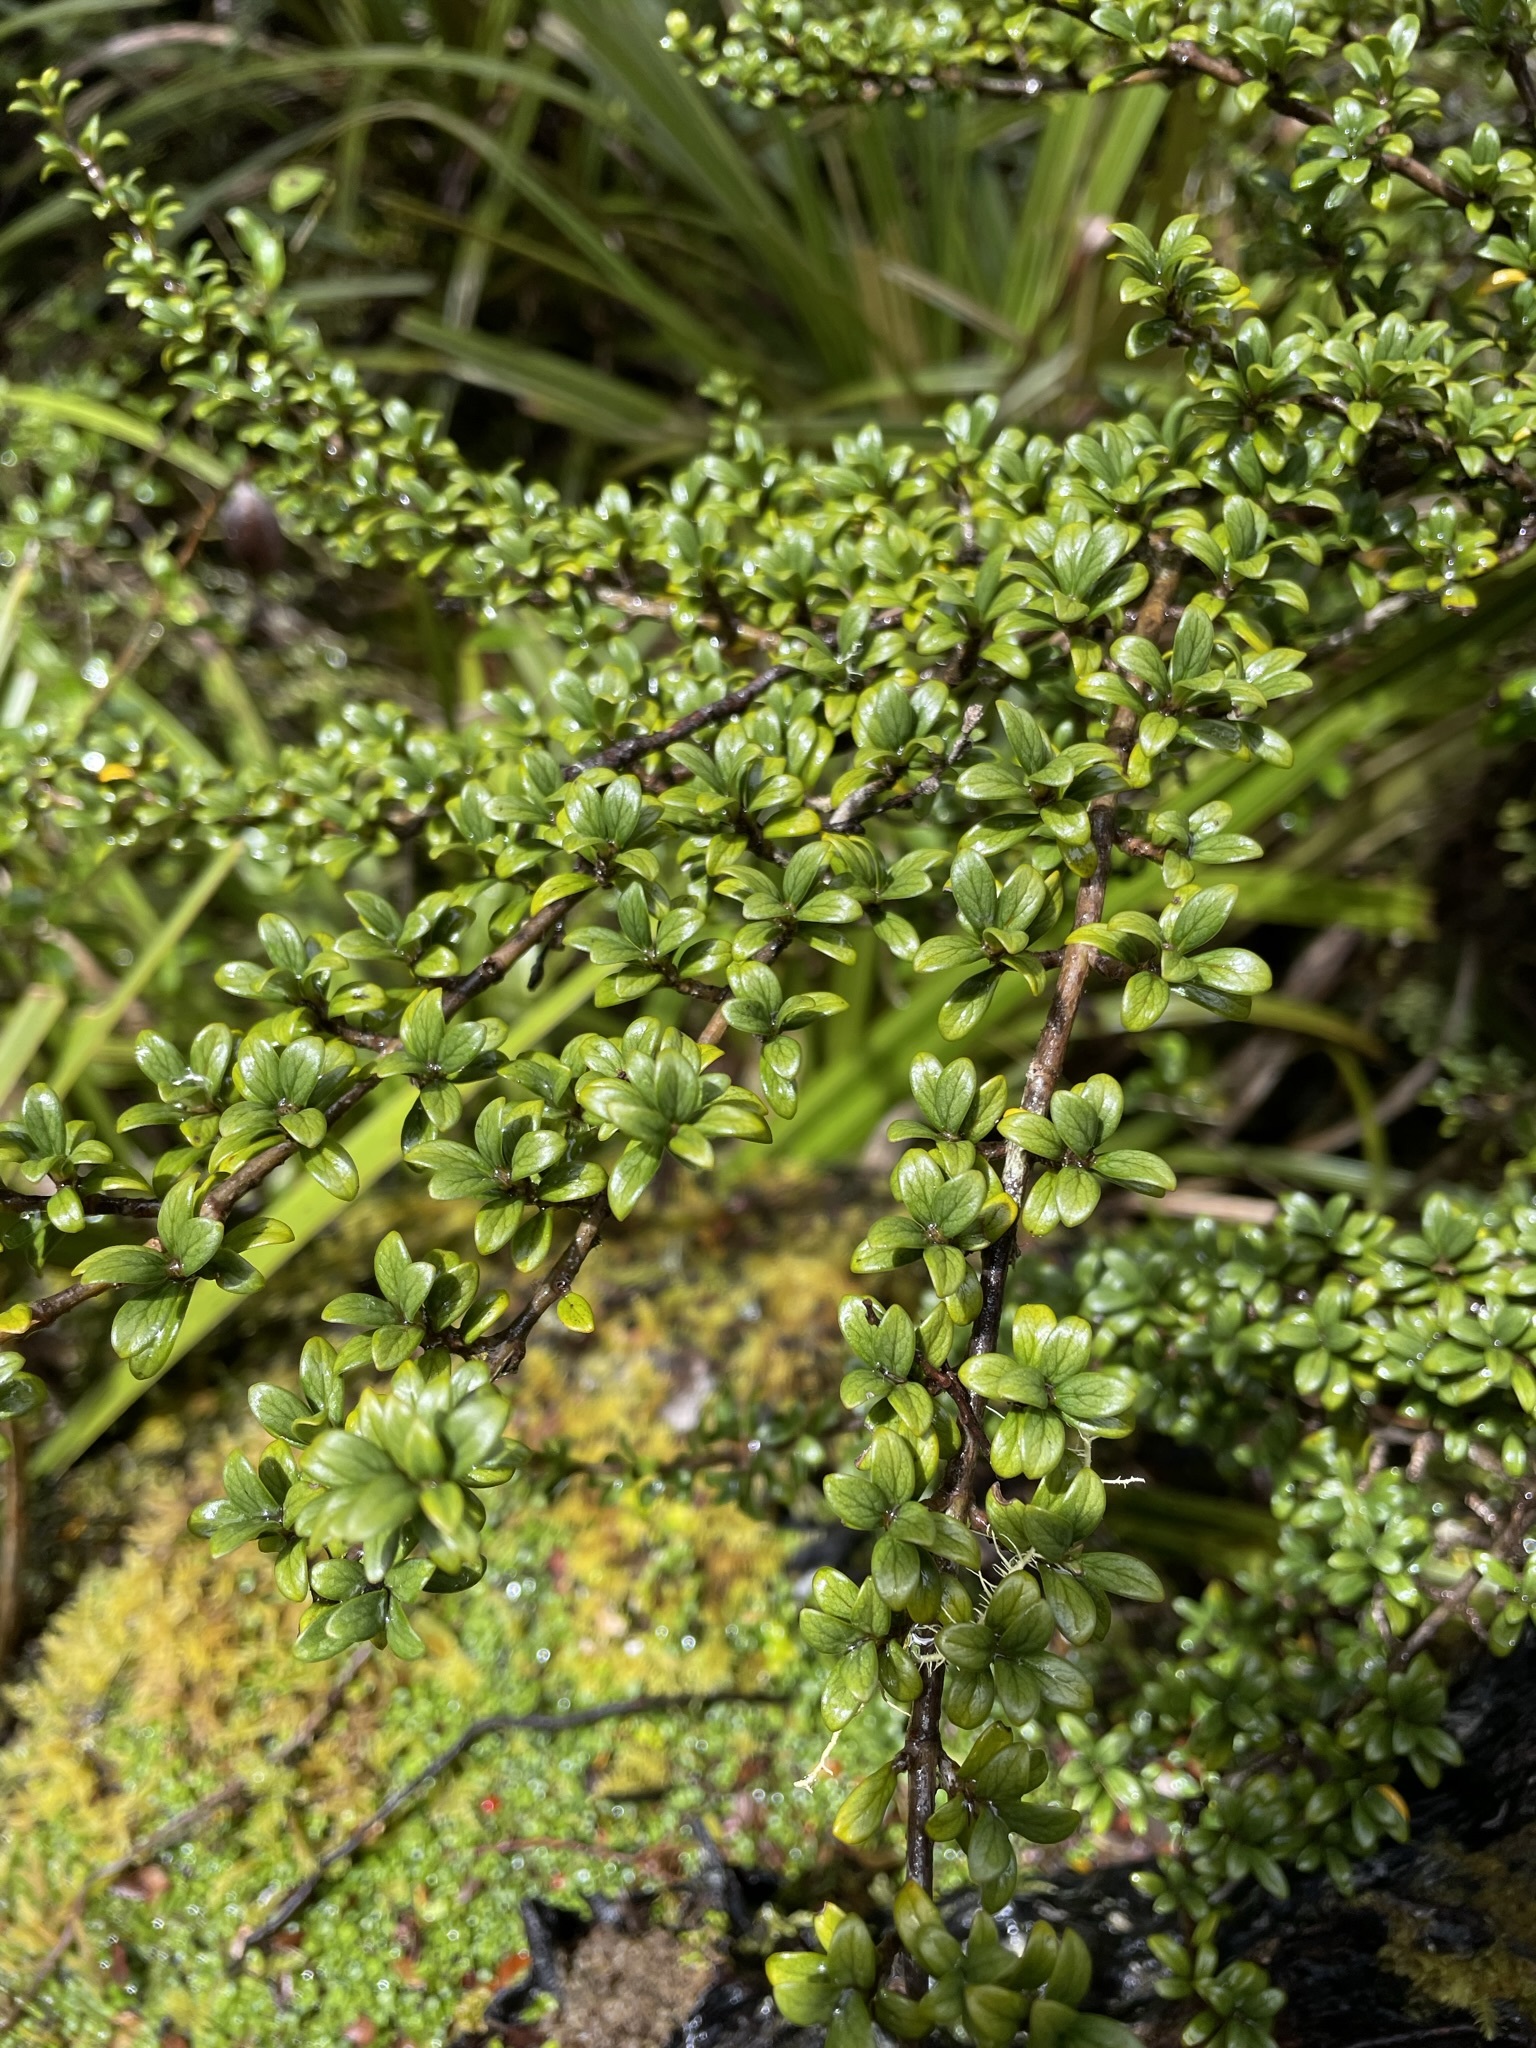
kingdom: Plantae
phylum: Tracheophyta
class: Magnoliopsida
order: Gentianales
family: Rubiaceae
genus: Coprosma
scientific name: Coprosma pseudocuneata
